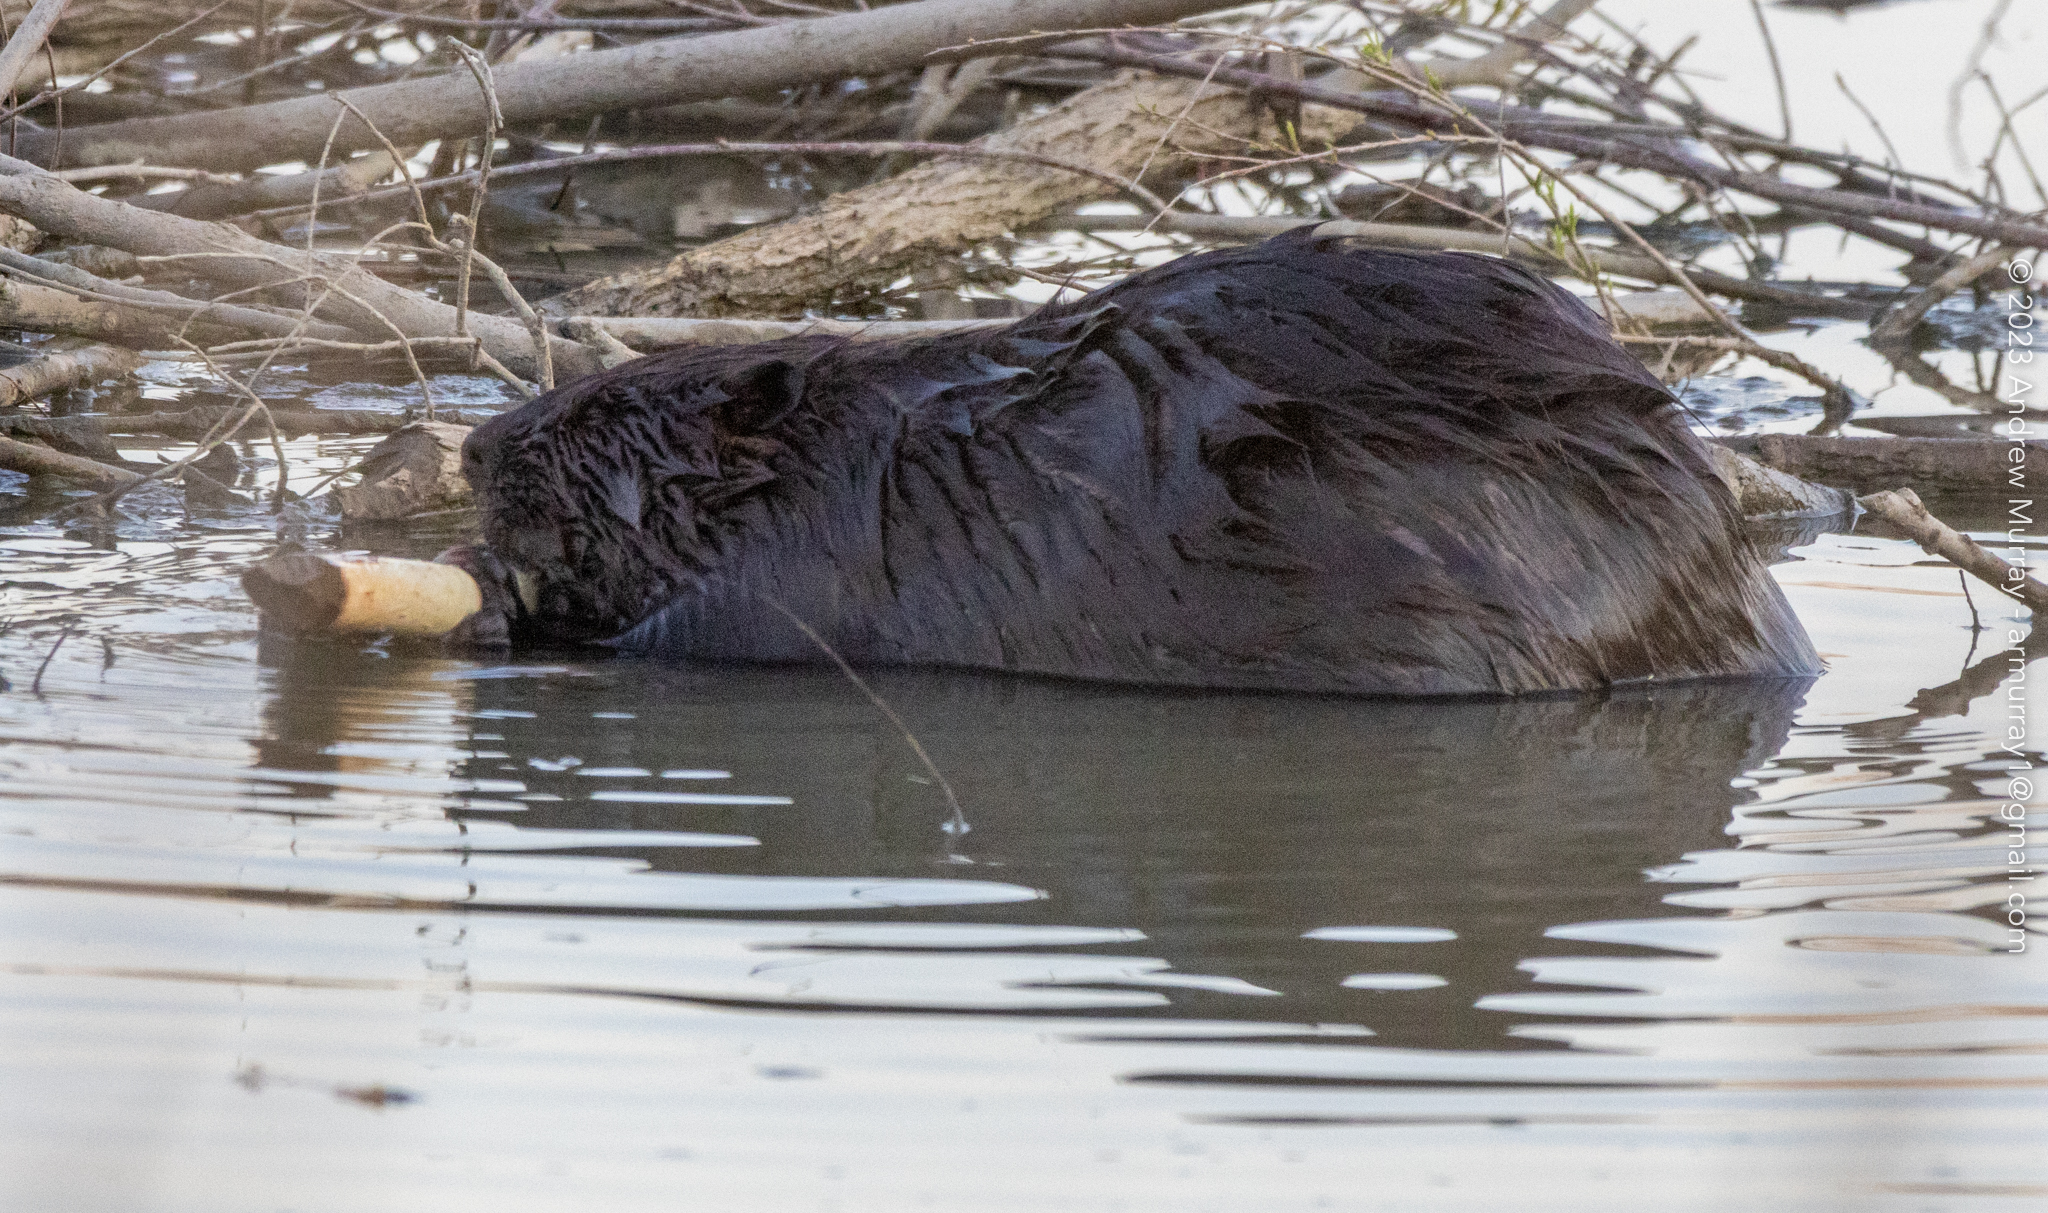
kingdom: Animalia
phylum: Chordata
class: Mammalia
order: Rodentia
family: Castoridae
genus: Castor
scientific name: Castor canadensis
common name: American beaver
